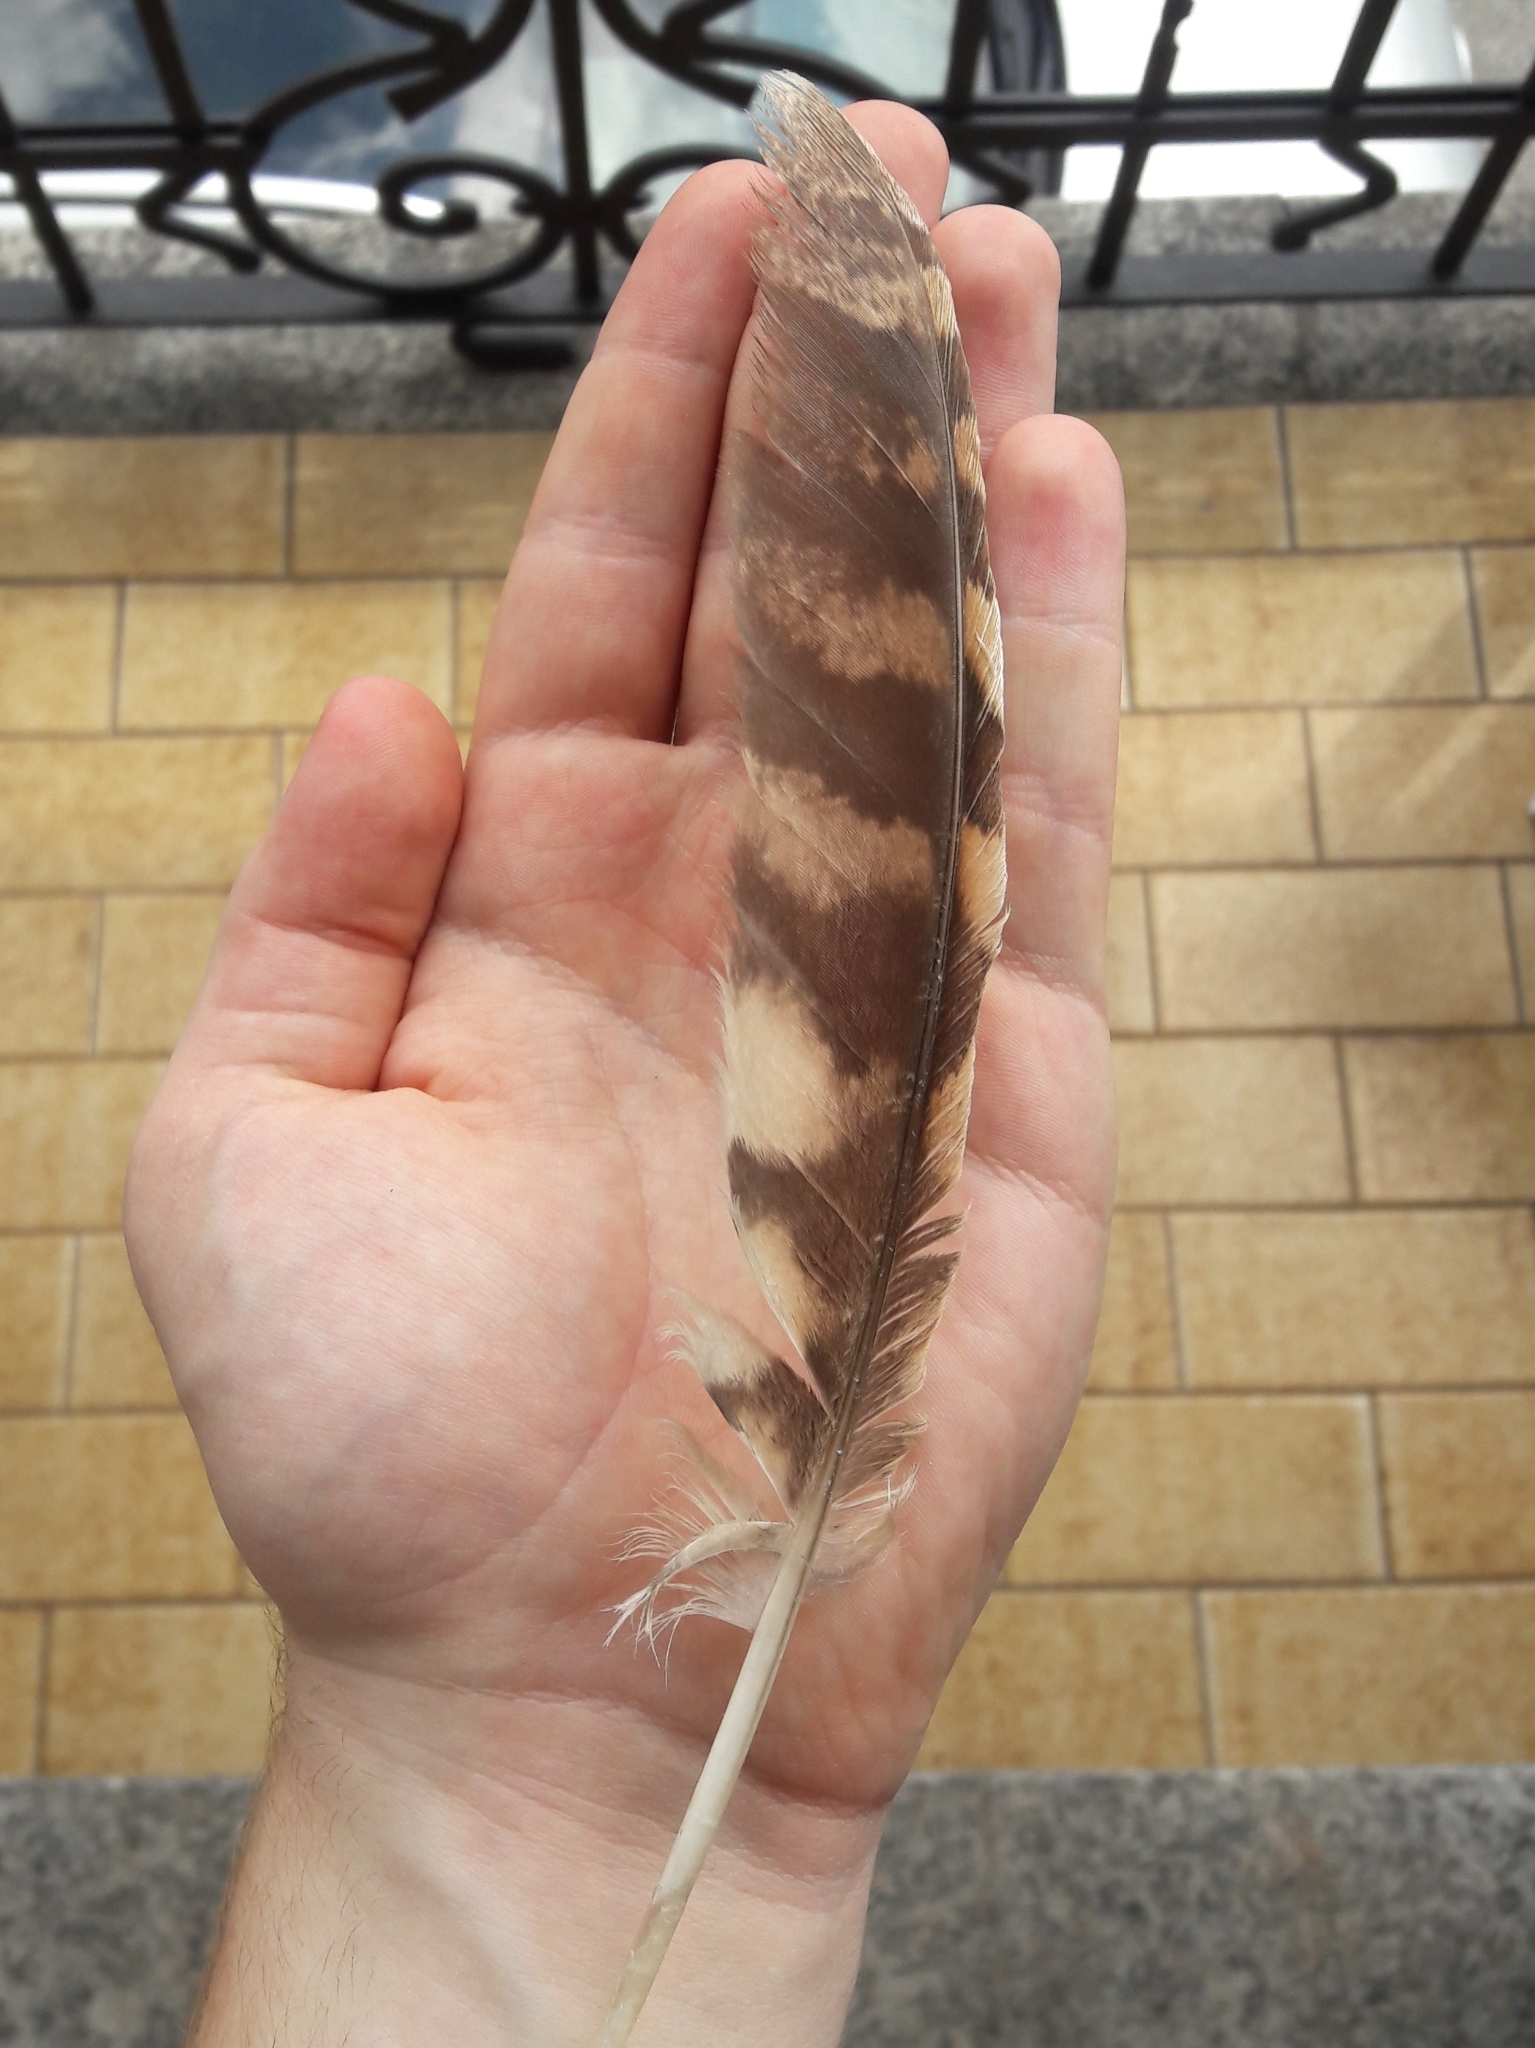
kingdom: Animalia
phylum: Chordata
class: Aves
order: Strigiformes
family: Strigidae
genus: Strix
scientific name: Strix aluco
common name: Tawny owl
